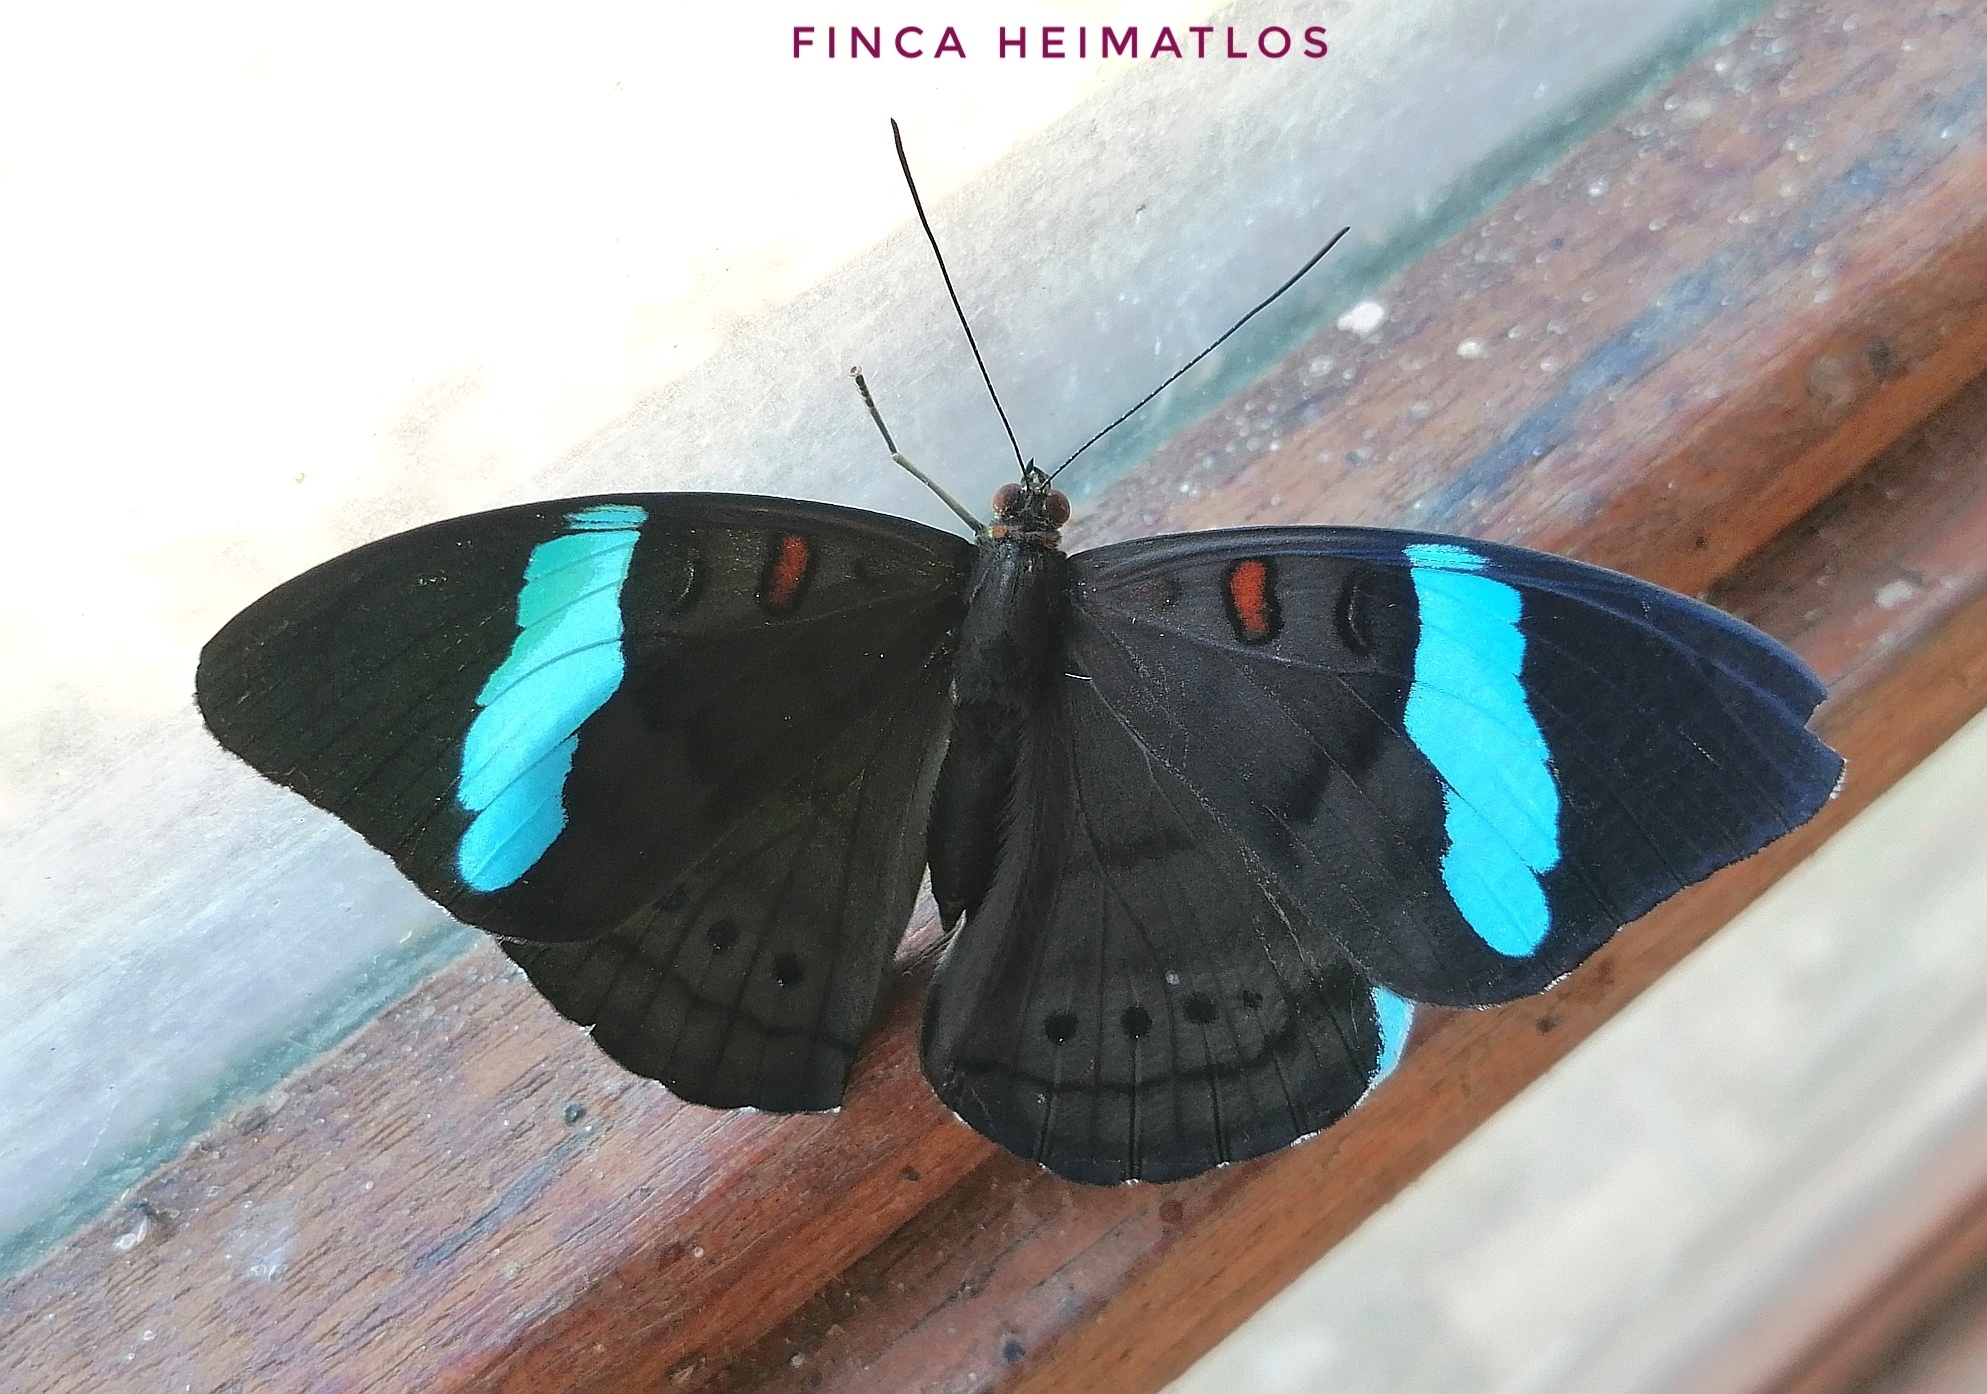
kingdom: Animalia
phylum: Arthropoda
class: Insecta
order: Lepidoptera
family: Nymphalidae
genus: Nessaea
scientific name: Nessaea aglaura
